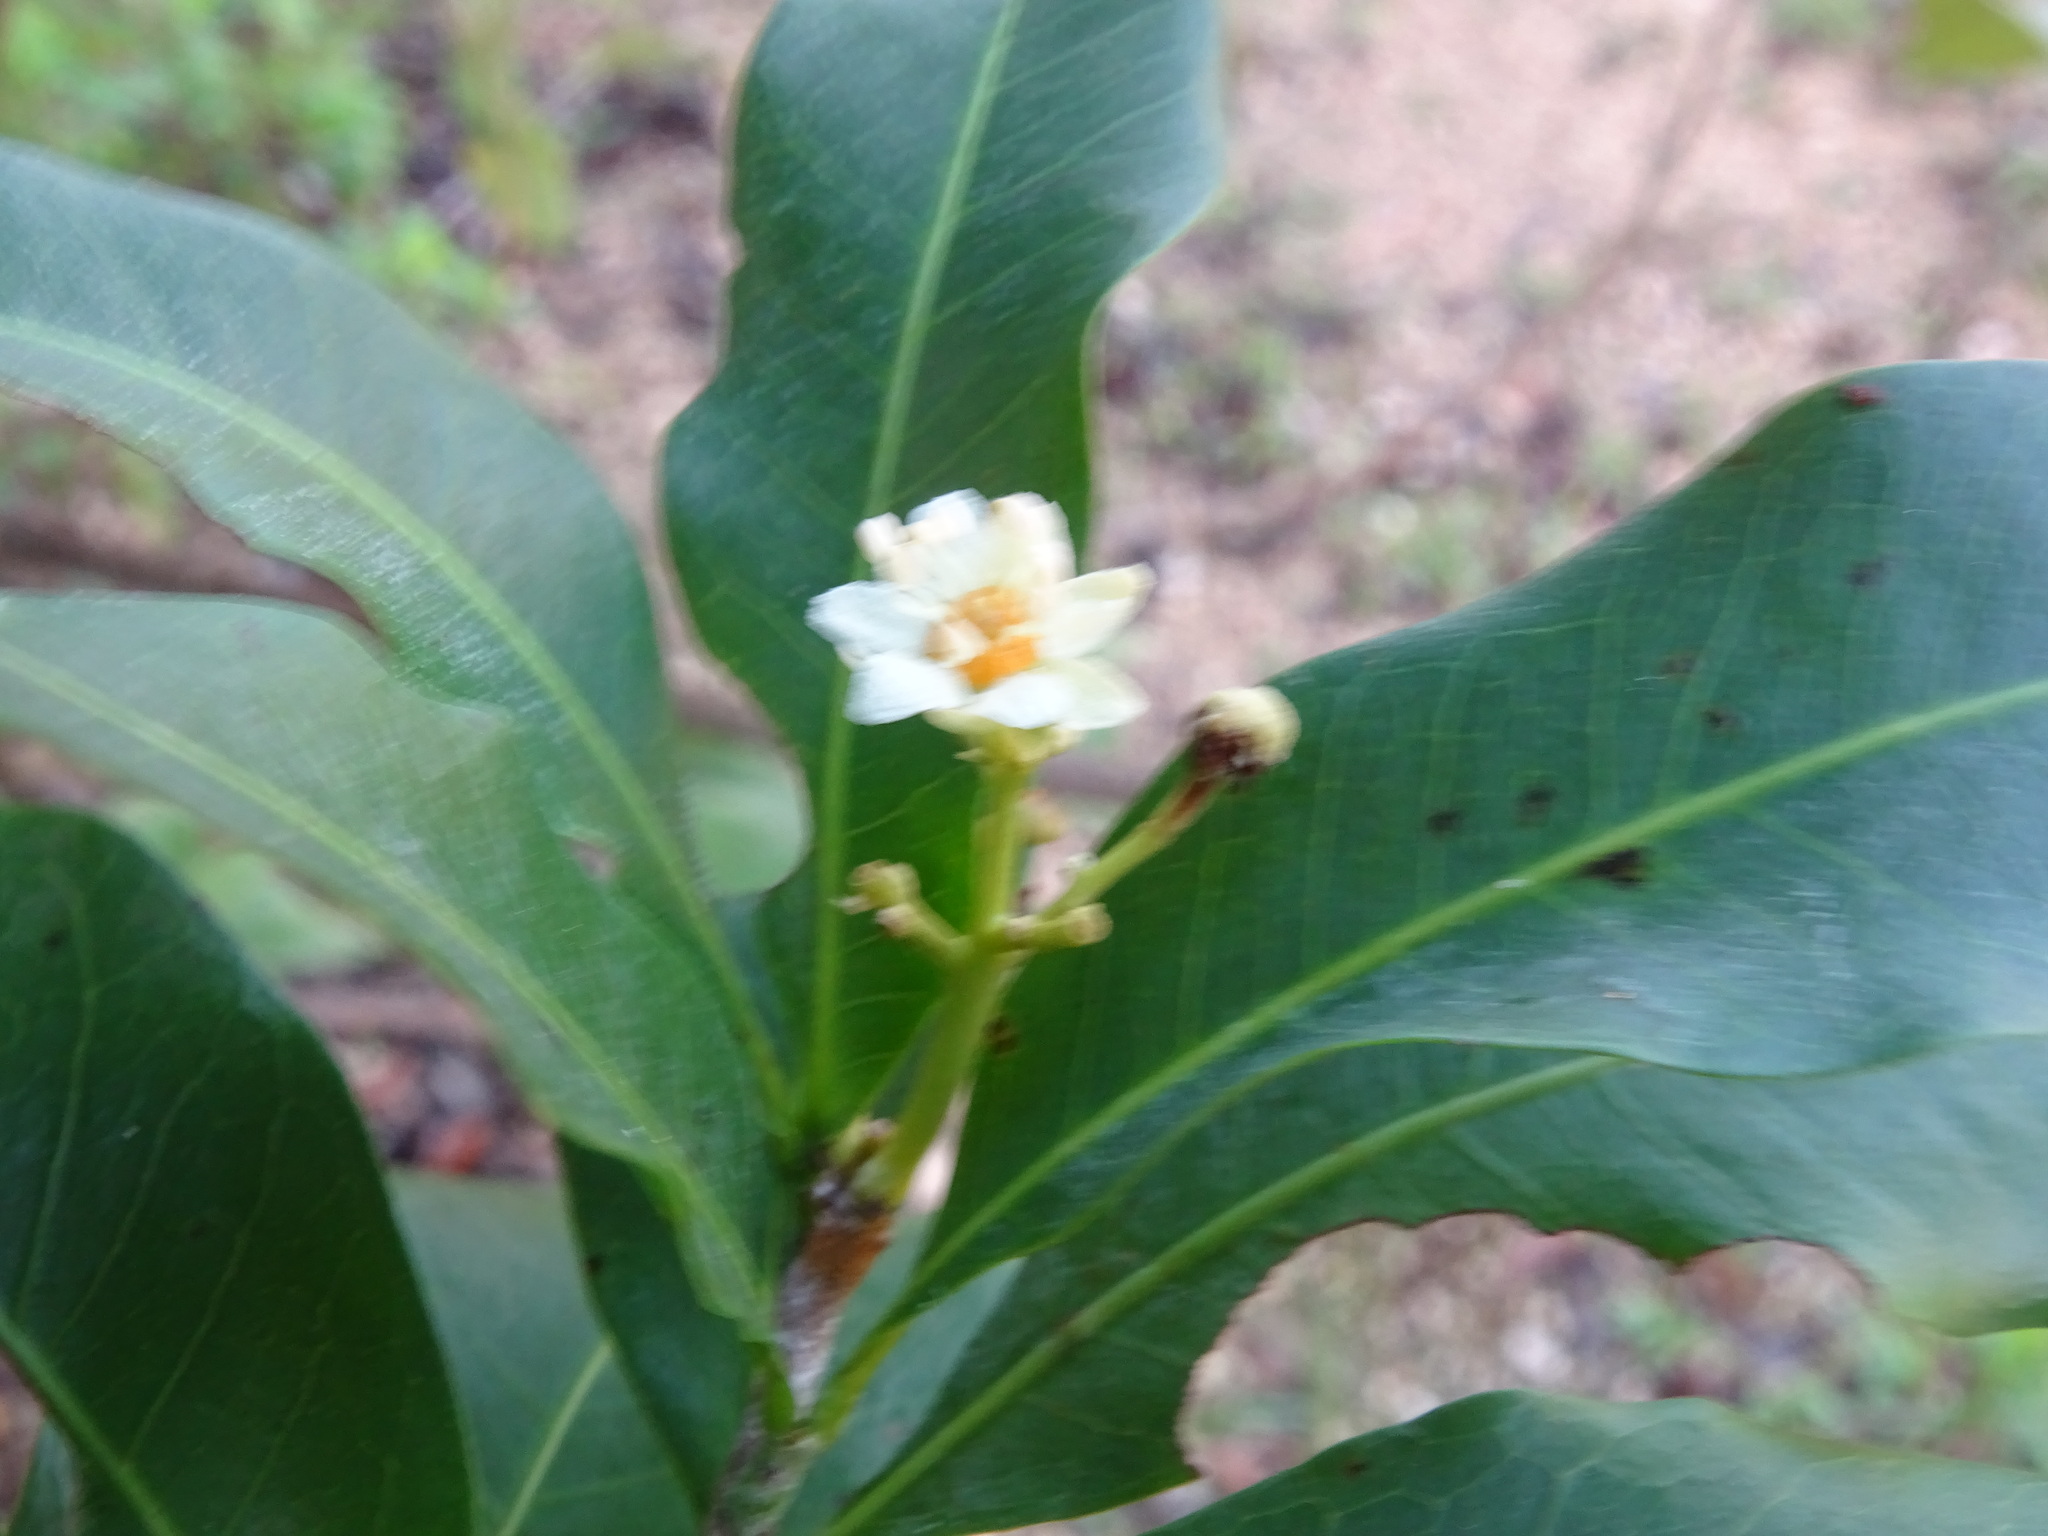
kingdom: Plantae
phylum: Tracheophyta
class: Magnoliopsida
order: Sapindales
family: Sapindaceae
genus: Exothea
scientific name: Exothea paniculata
